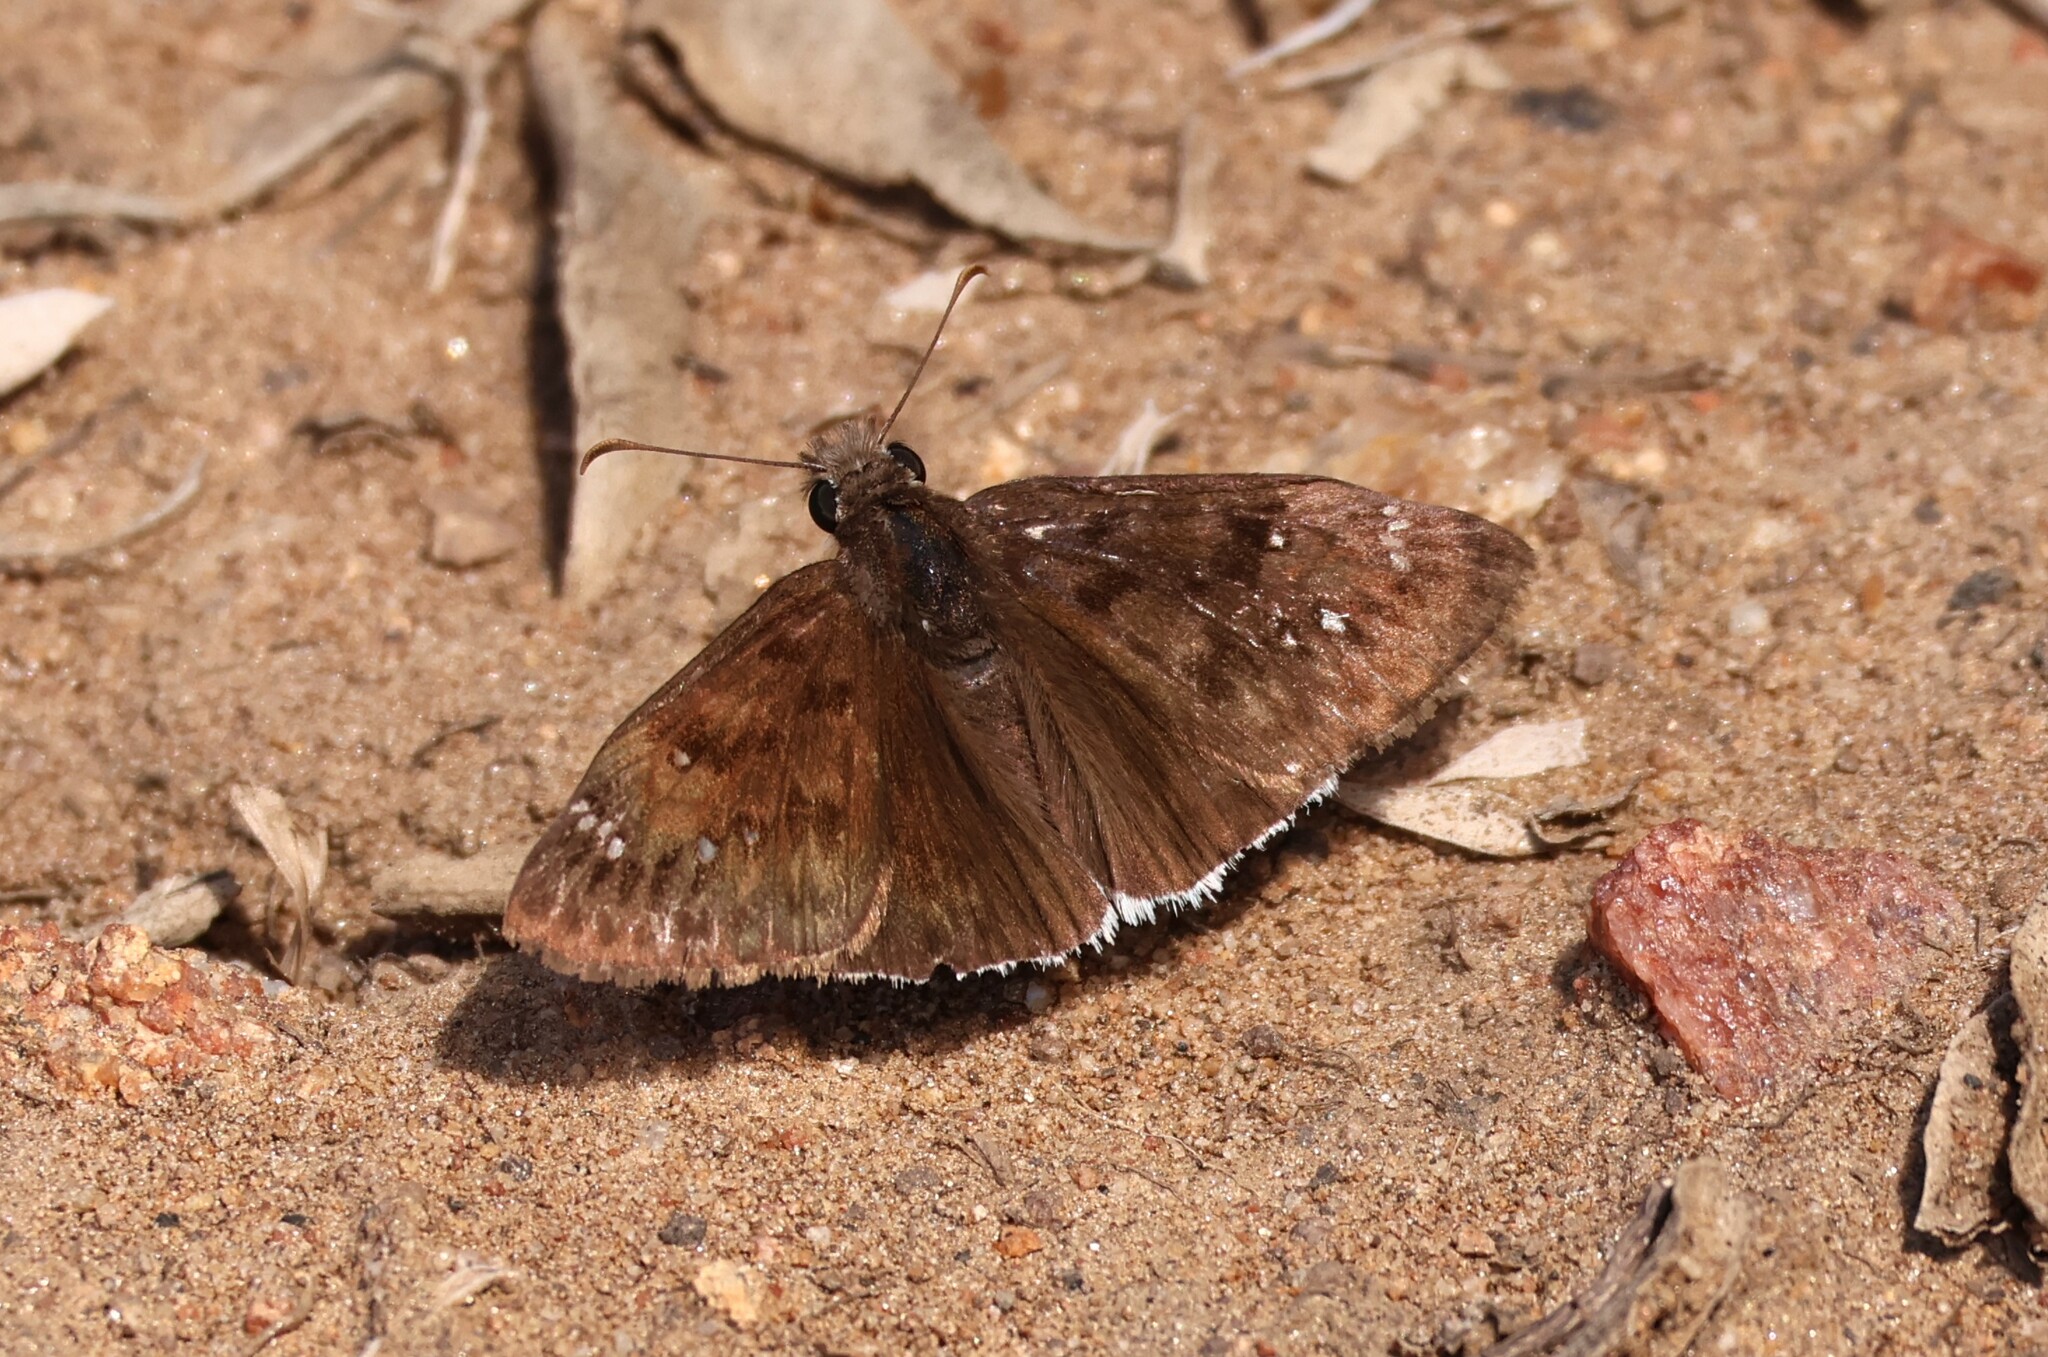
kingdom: Animalia
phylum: Arthropoda
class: Insecta
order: Lepidoptera
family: Hesperiidae
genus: Erynnis
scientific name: Erynnis tristis
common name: Mournful duskywing
